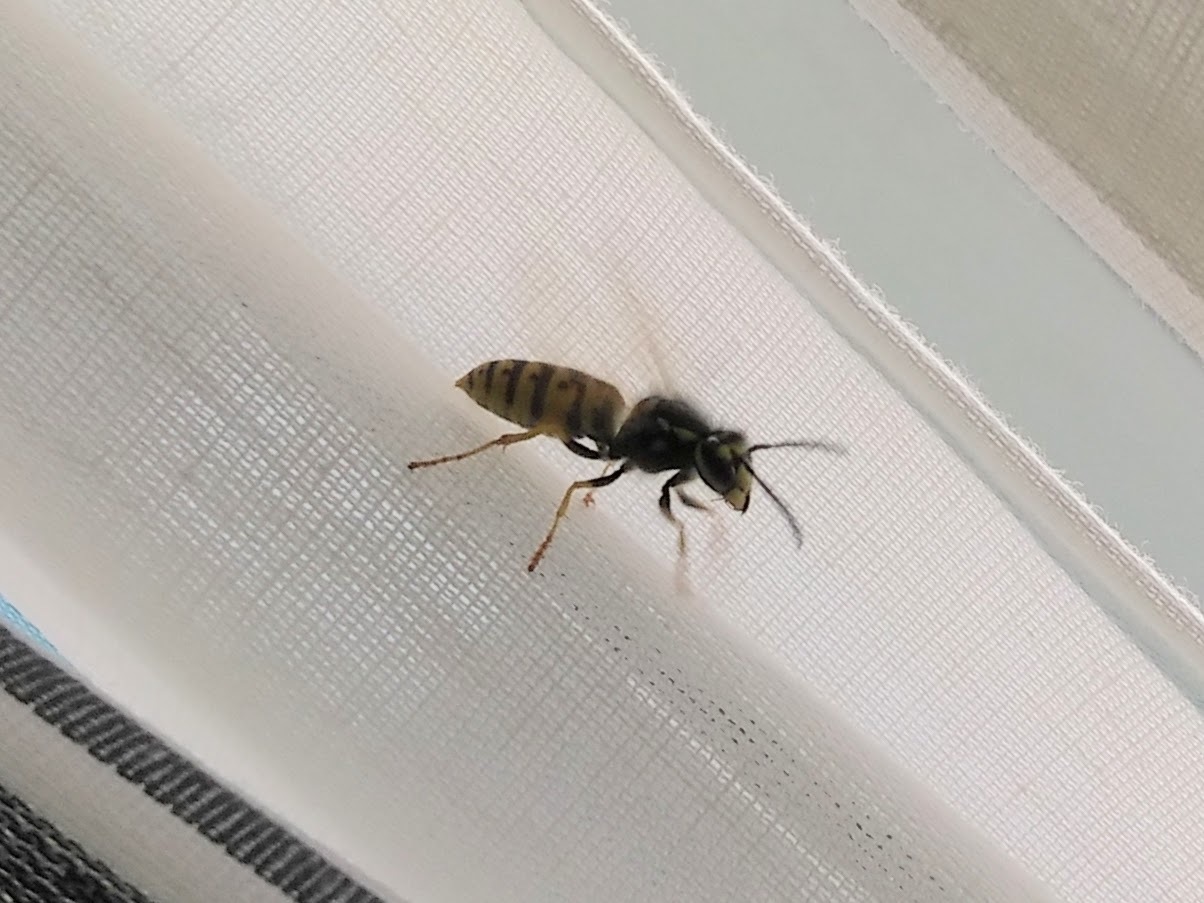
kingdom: Animalia
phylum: Arthropoda
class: Insecta
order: Hymenoptera
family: Vespidae
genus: Vespula
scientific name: Vespula germanica
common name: German wasp
